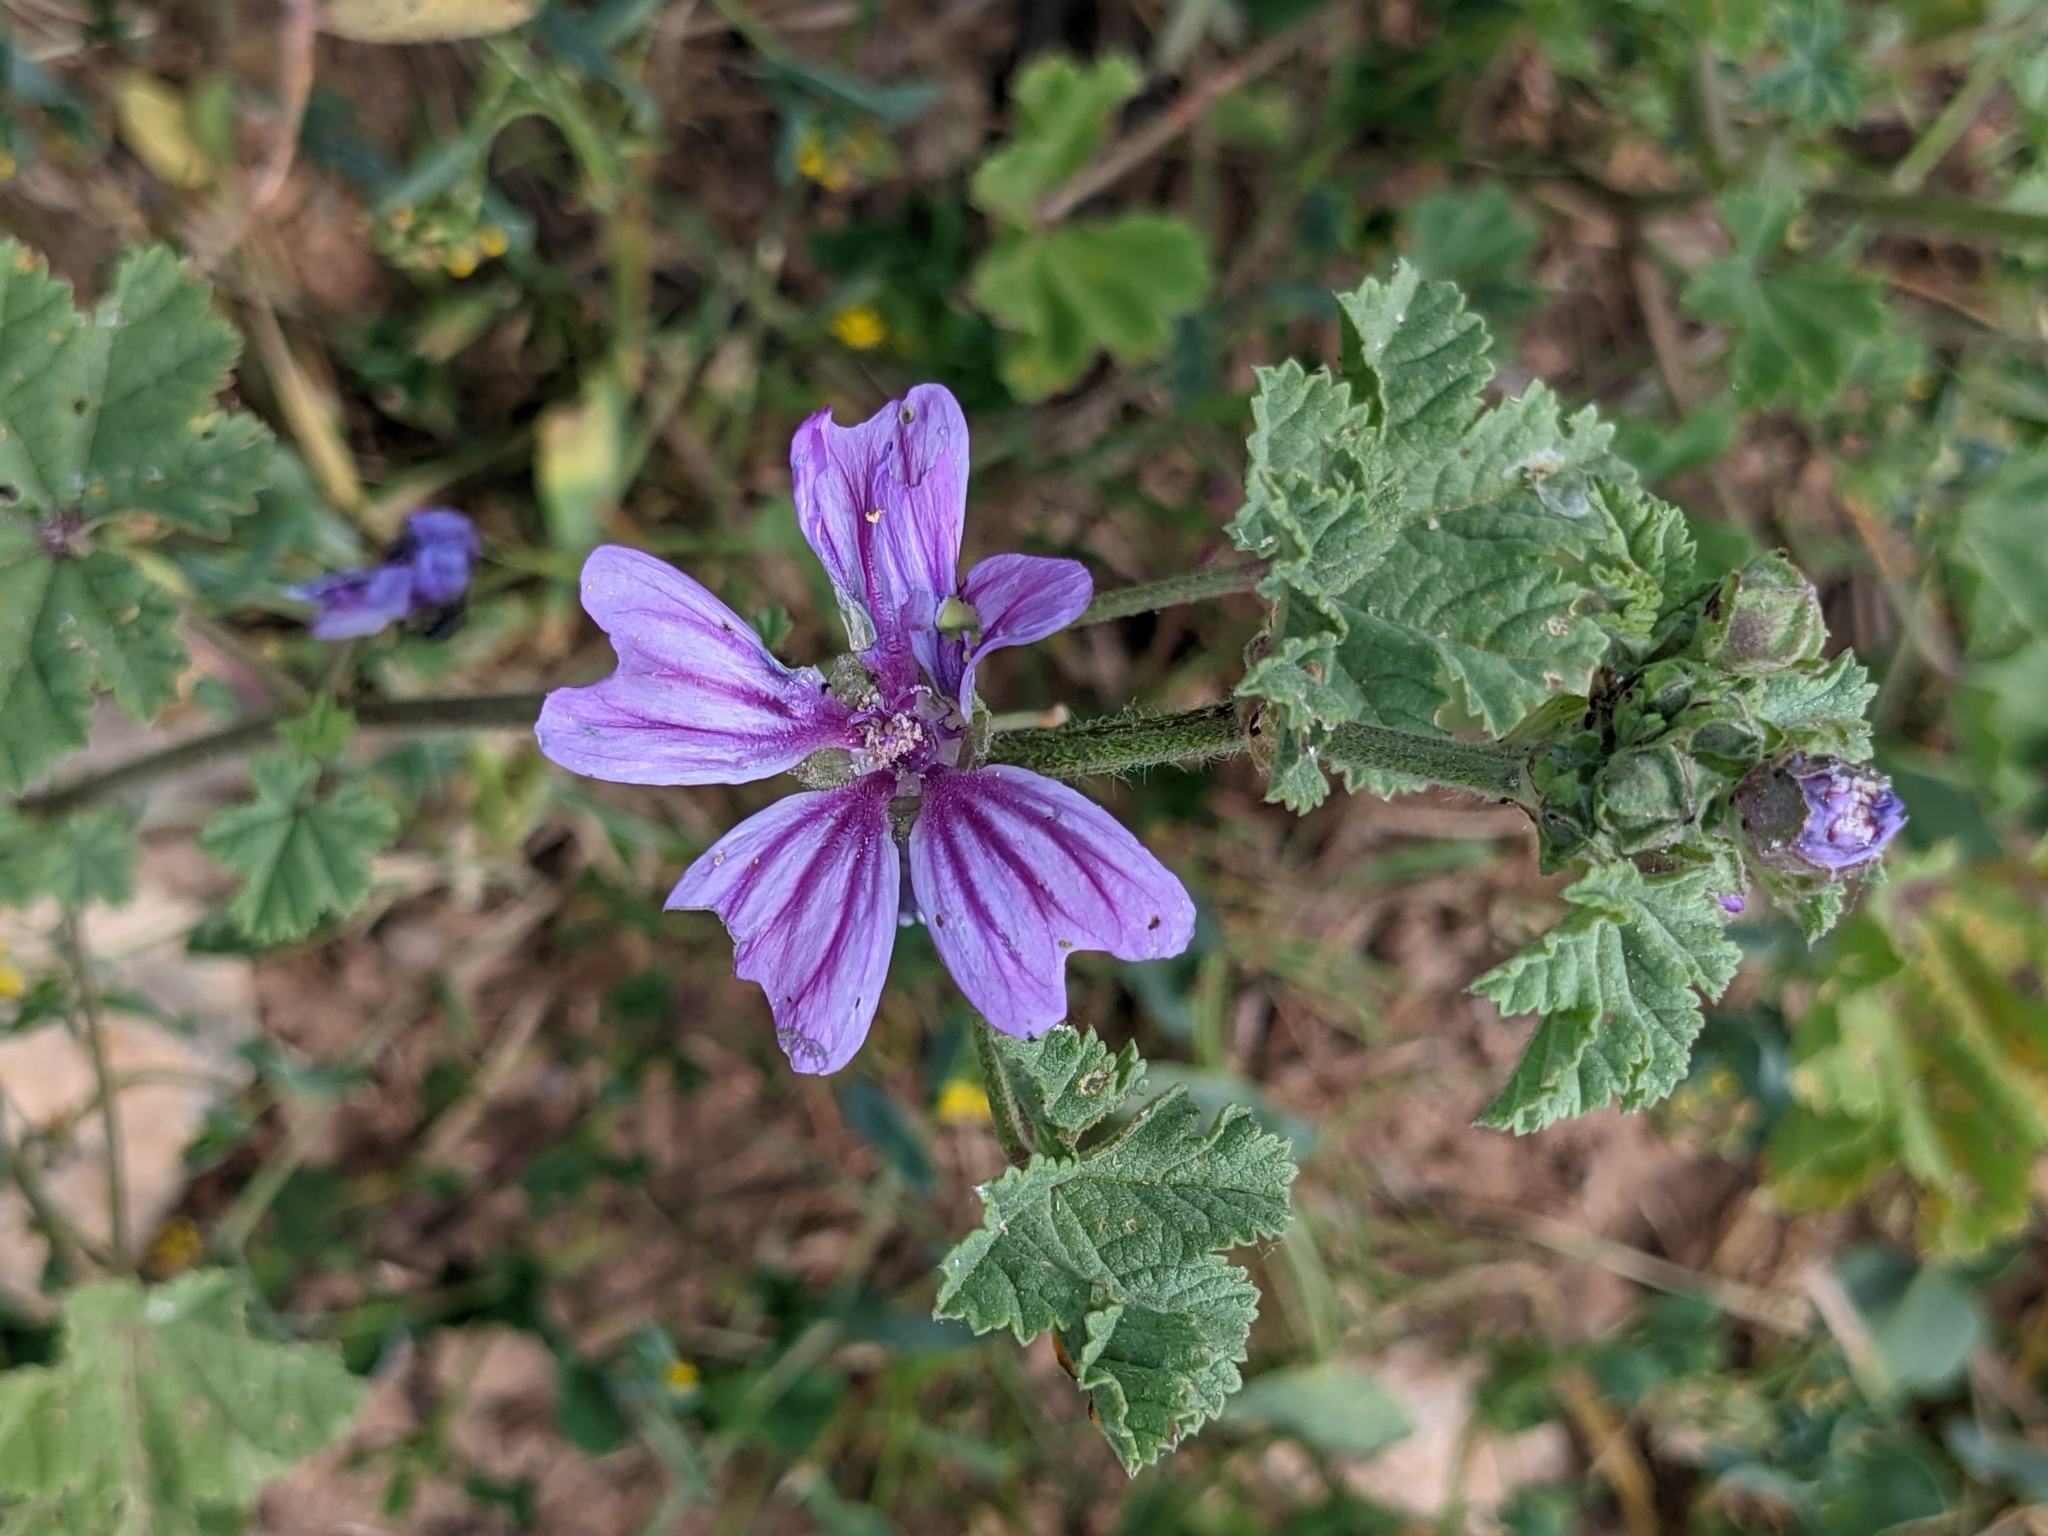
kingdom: Plantae
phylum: Tracheophyta
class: Magnoliopsida
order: Malvales
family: Malvaceae
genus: Malva
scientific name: Malva sylvestris
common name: Common mallow
